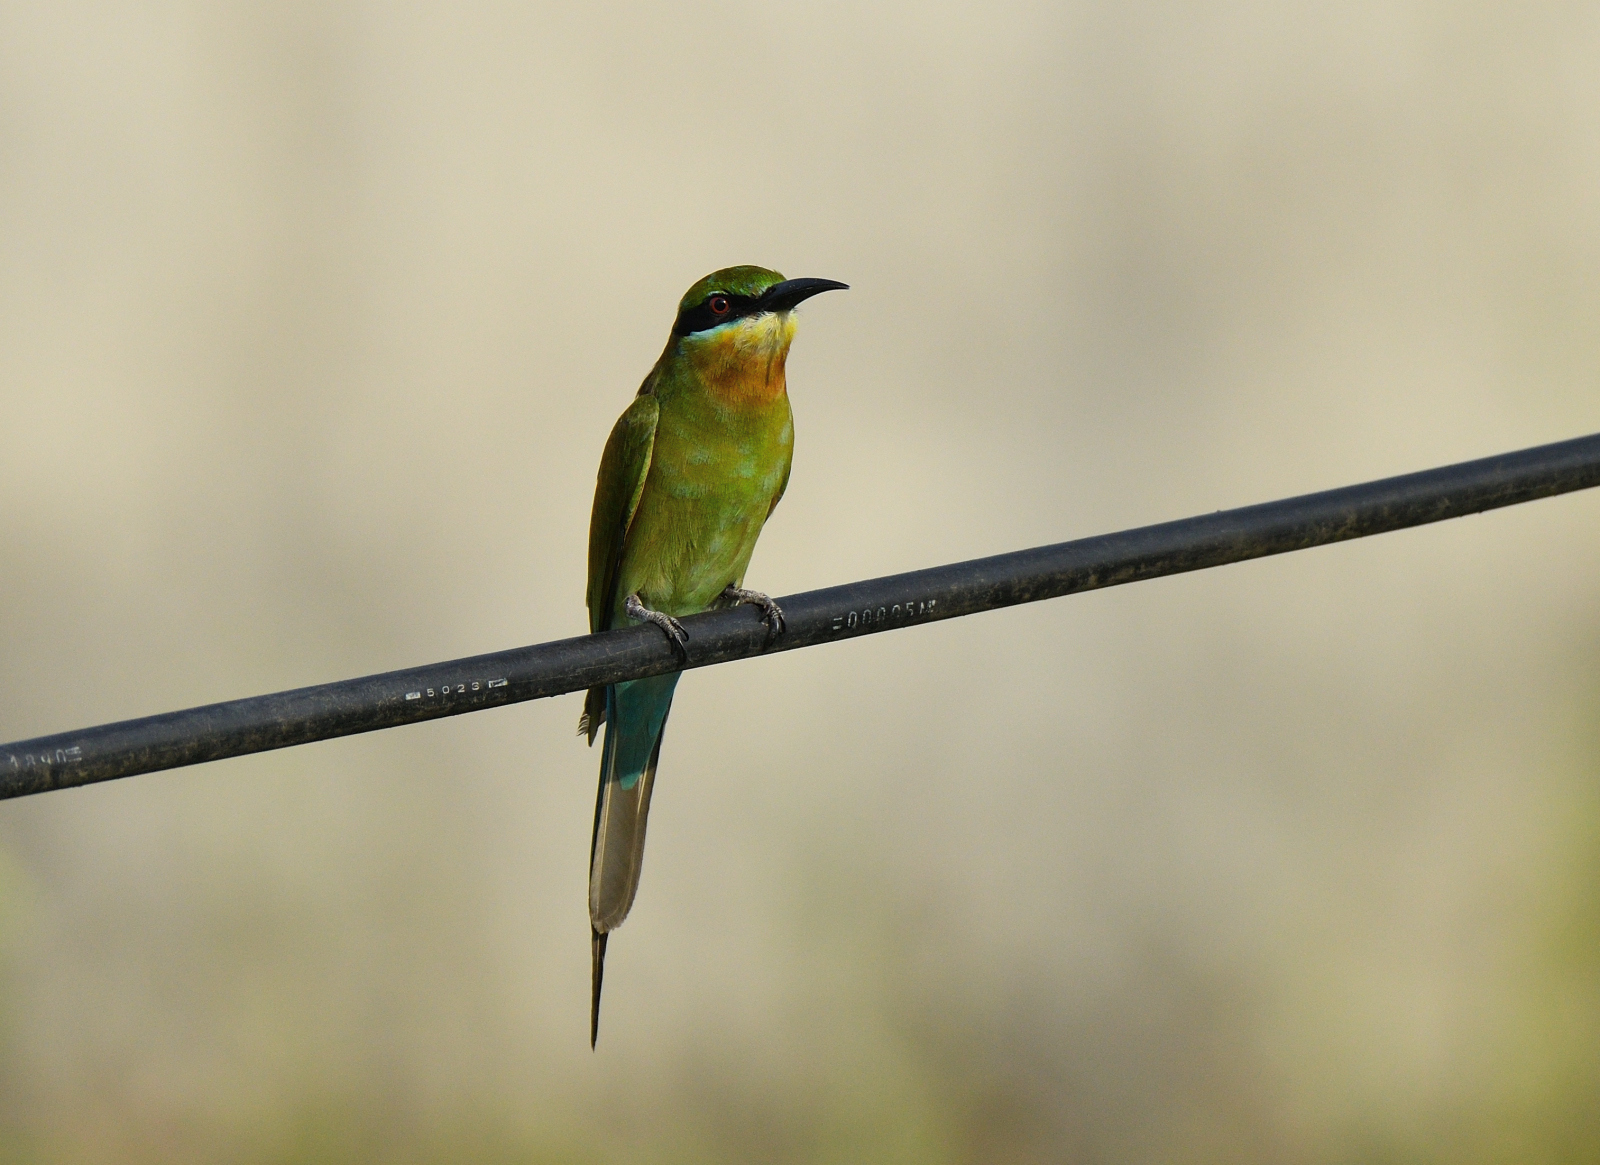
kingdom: Animalia
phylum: Chordata
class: Aves
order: Coraciiformes
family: Meropidae
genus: Merops
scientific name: Merops philippinus
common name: Blue-tailed bee-eater
